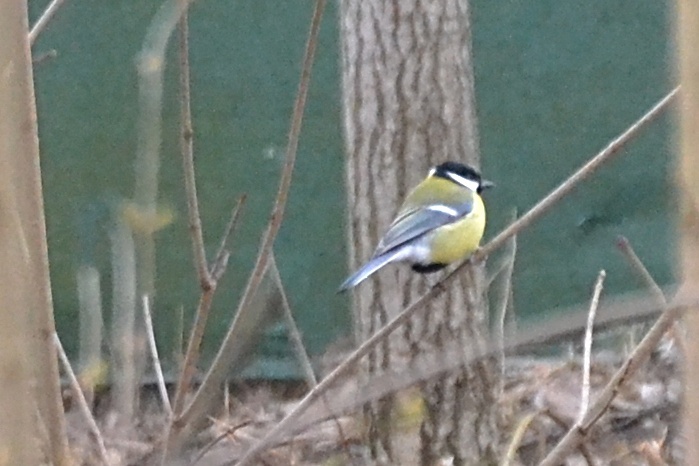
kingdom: Animalia
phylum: Chordata
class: Aves
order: Passeriformes
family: Paridae
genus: Parus
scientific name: Parus major
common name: Great tit
